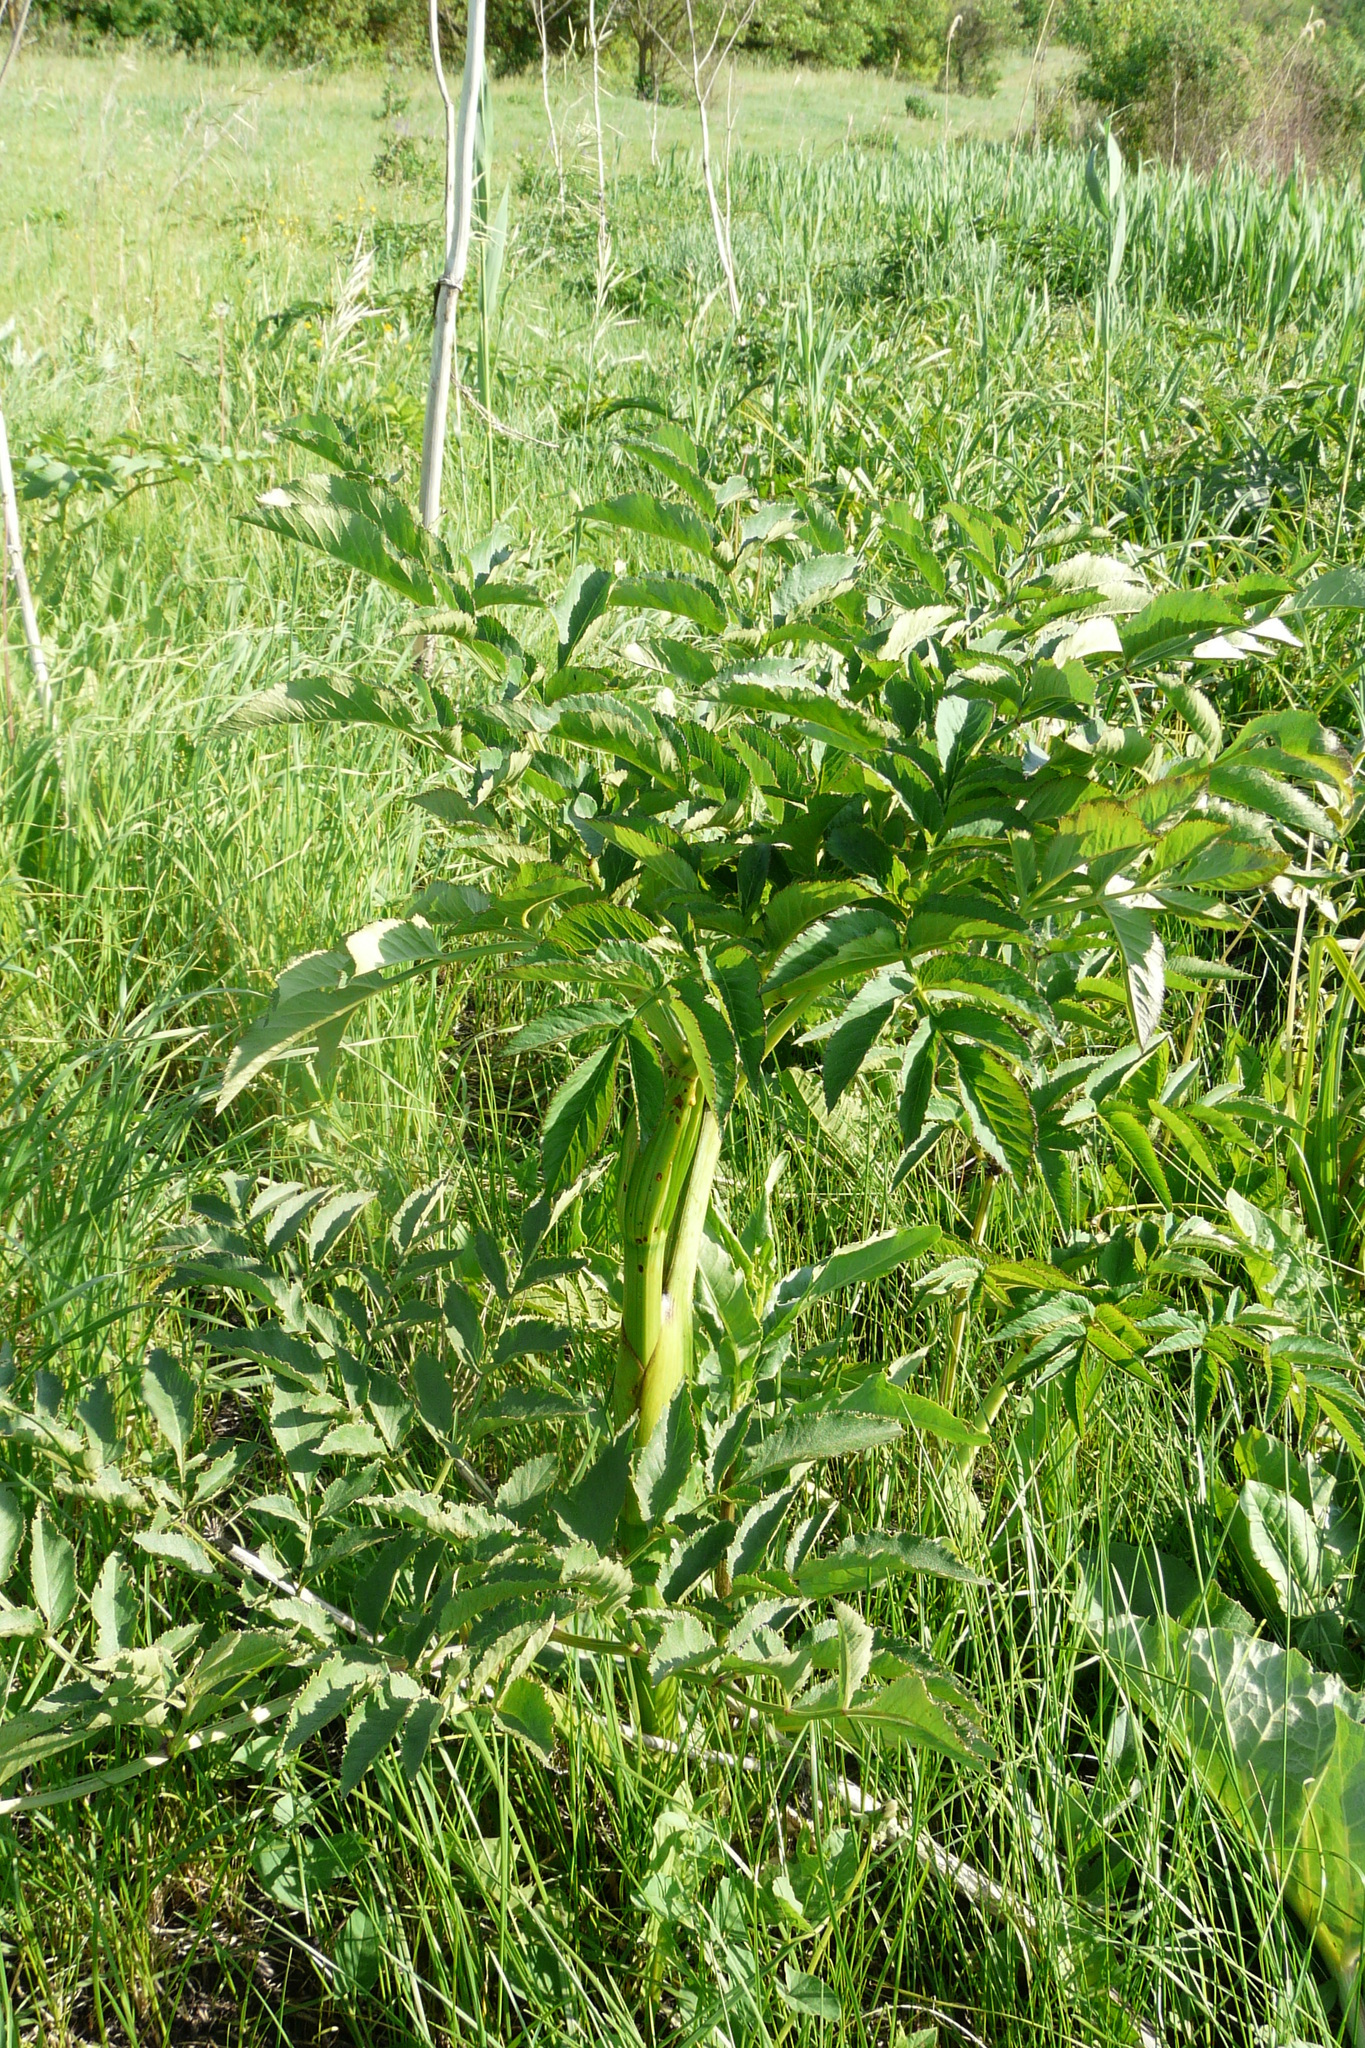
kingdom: Plantae
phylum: Tracheophyta
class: Magnoliopsida
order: Apiales
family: Apiaceae
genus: Angelica
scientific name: Angelica sylvestris
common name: Wild angelica
